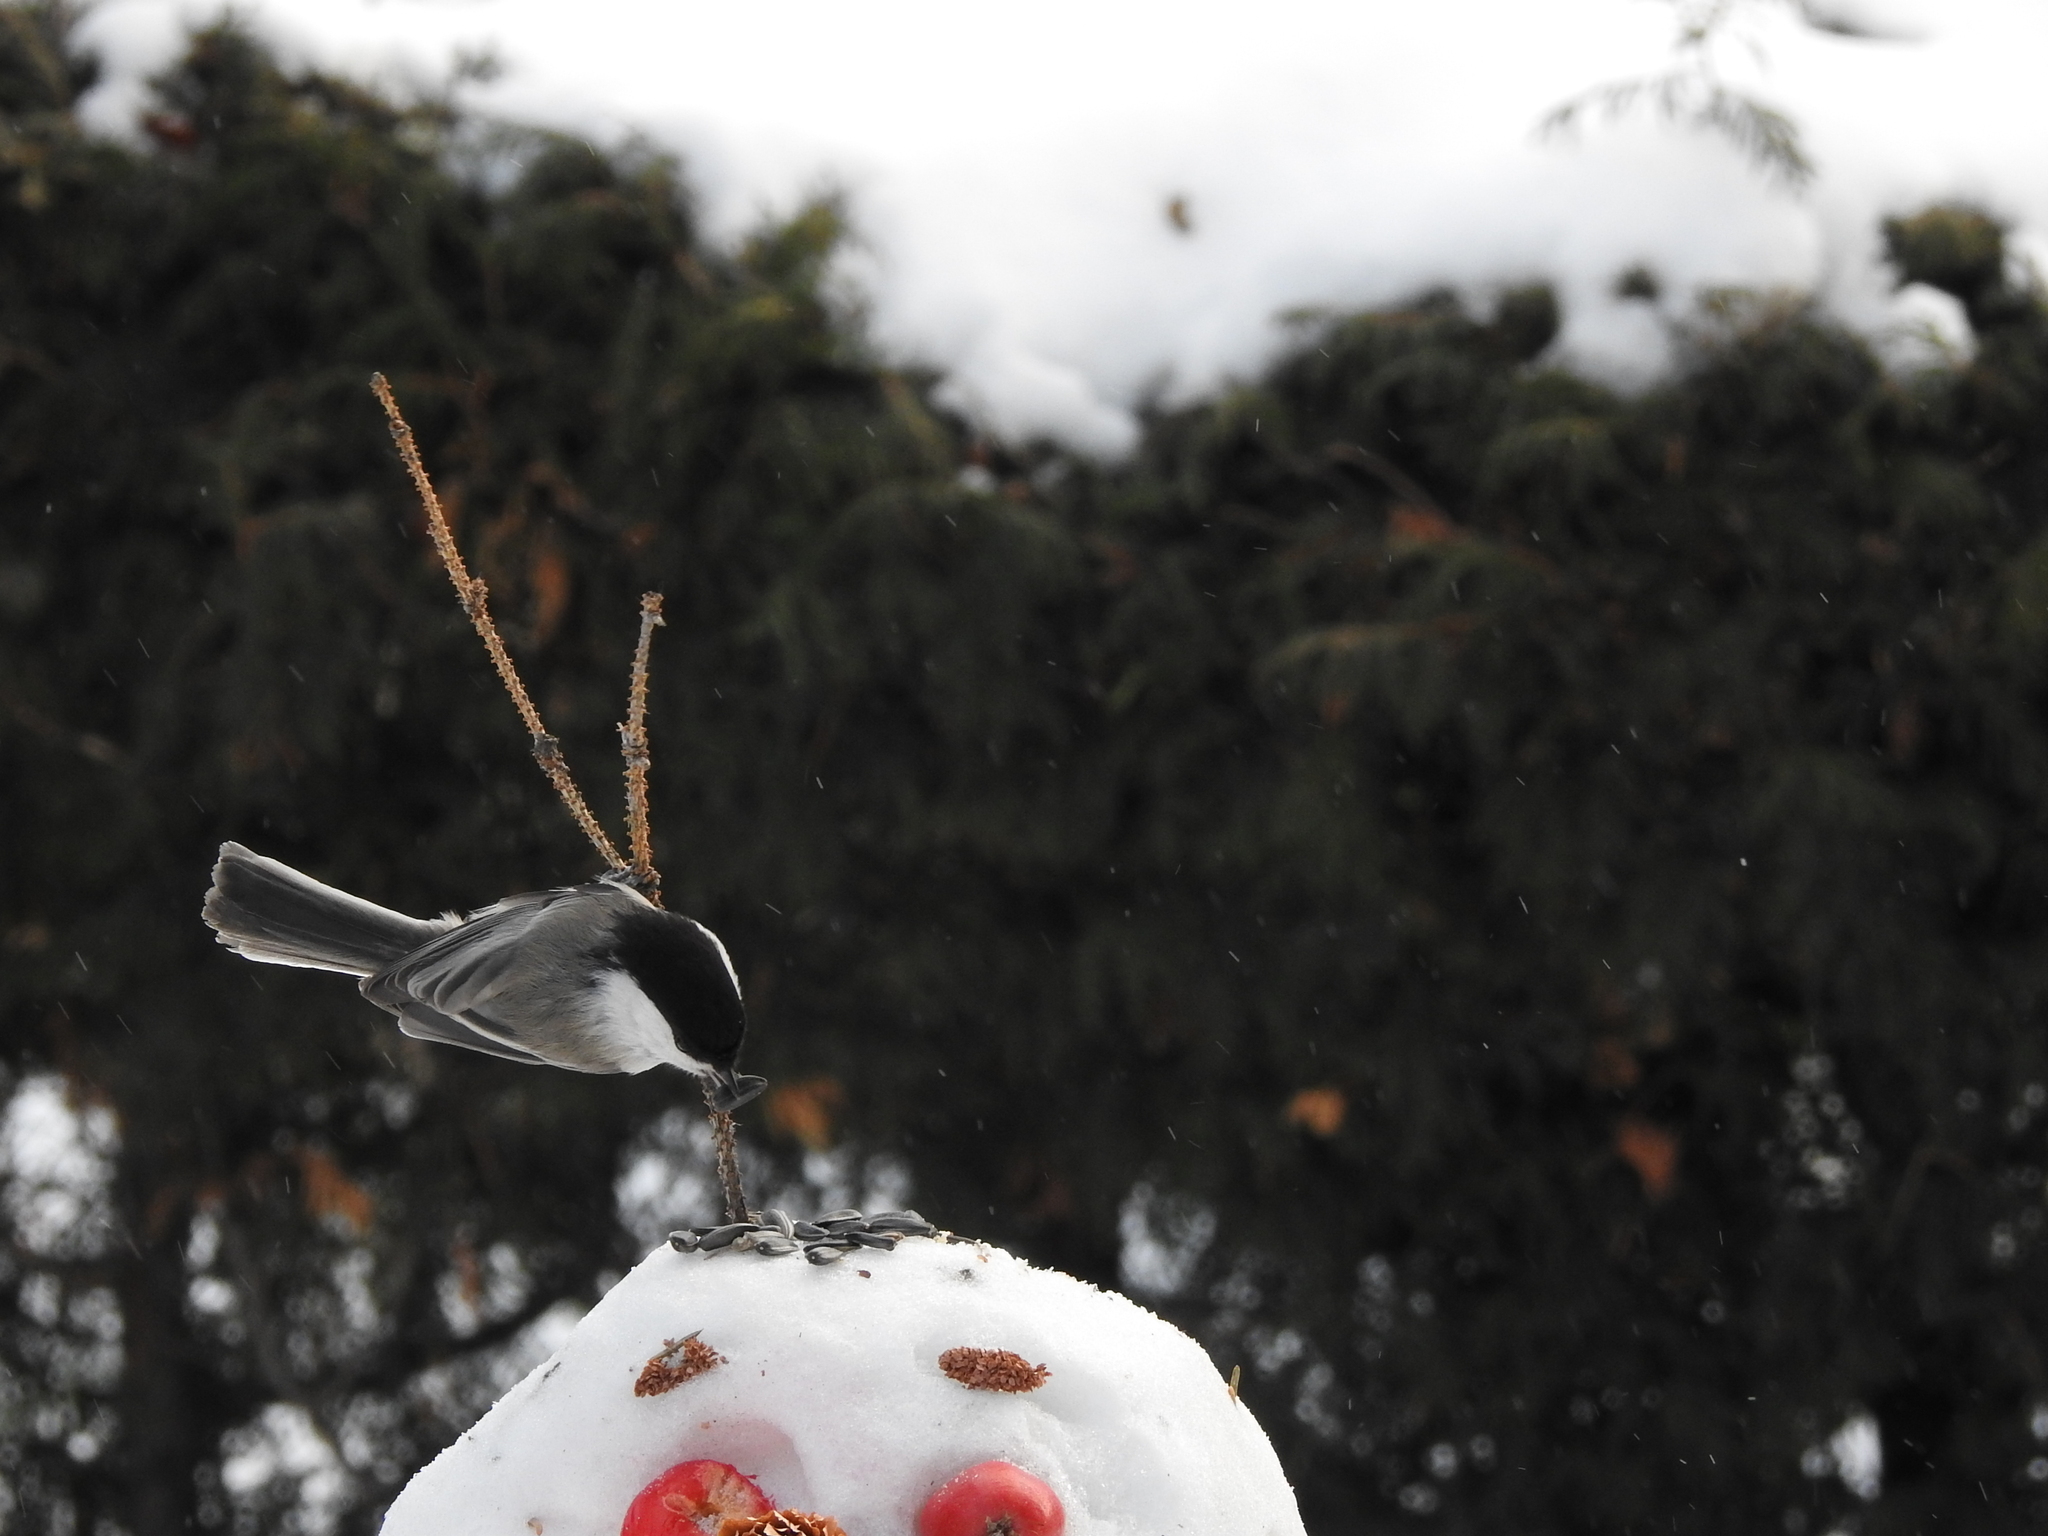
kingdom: Animalia
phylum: Chordata
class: Aves
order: Passeriformes
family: Paridae
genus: Poecile
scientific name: Poecile montanus
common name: Willow tit
